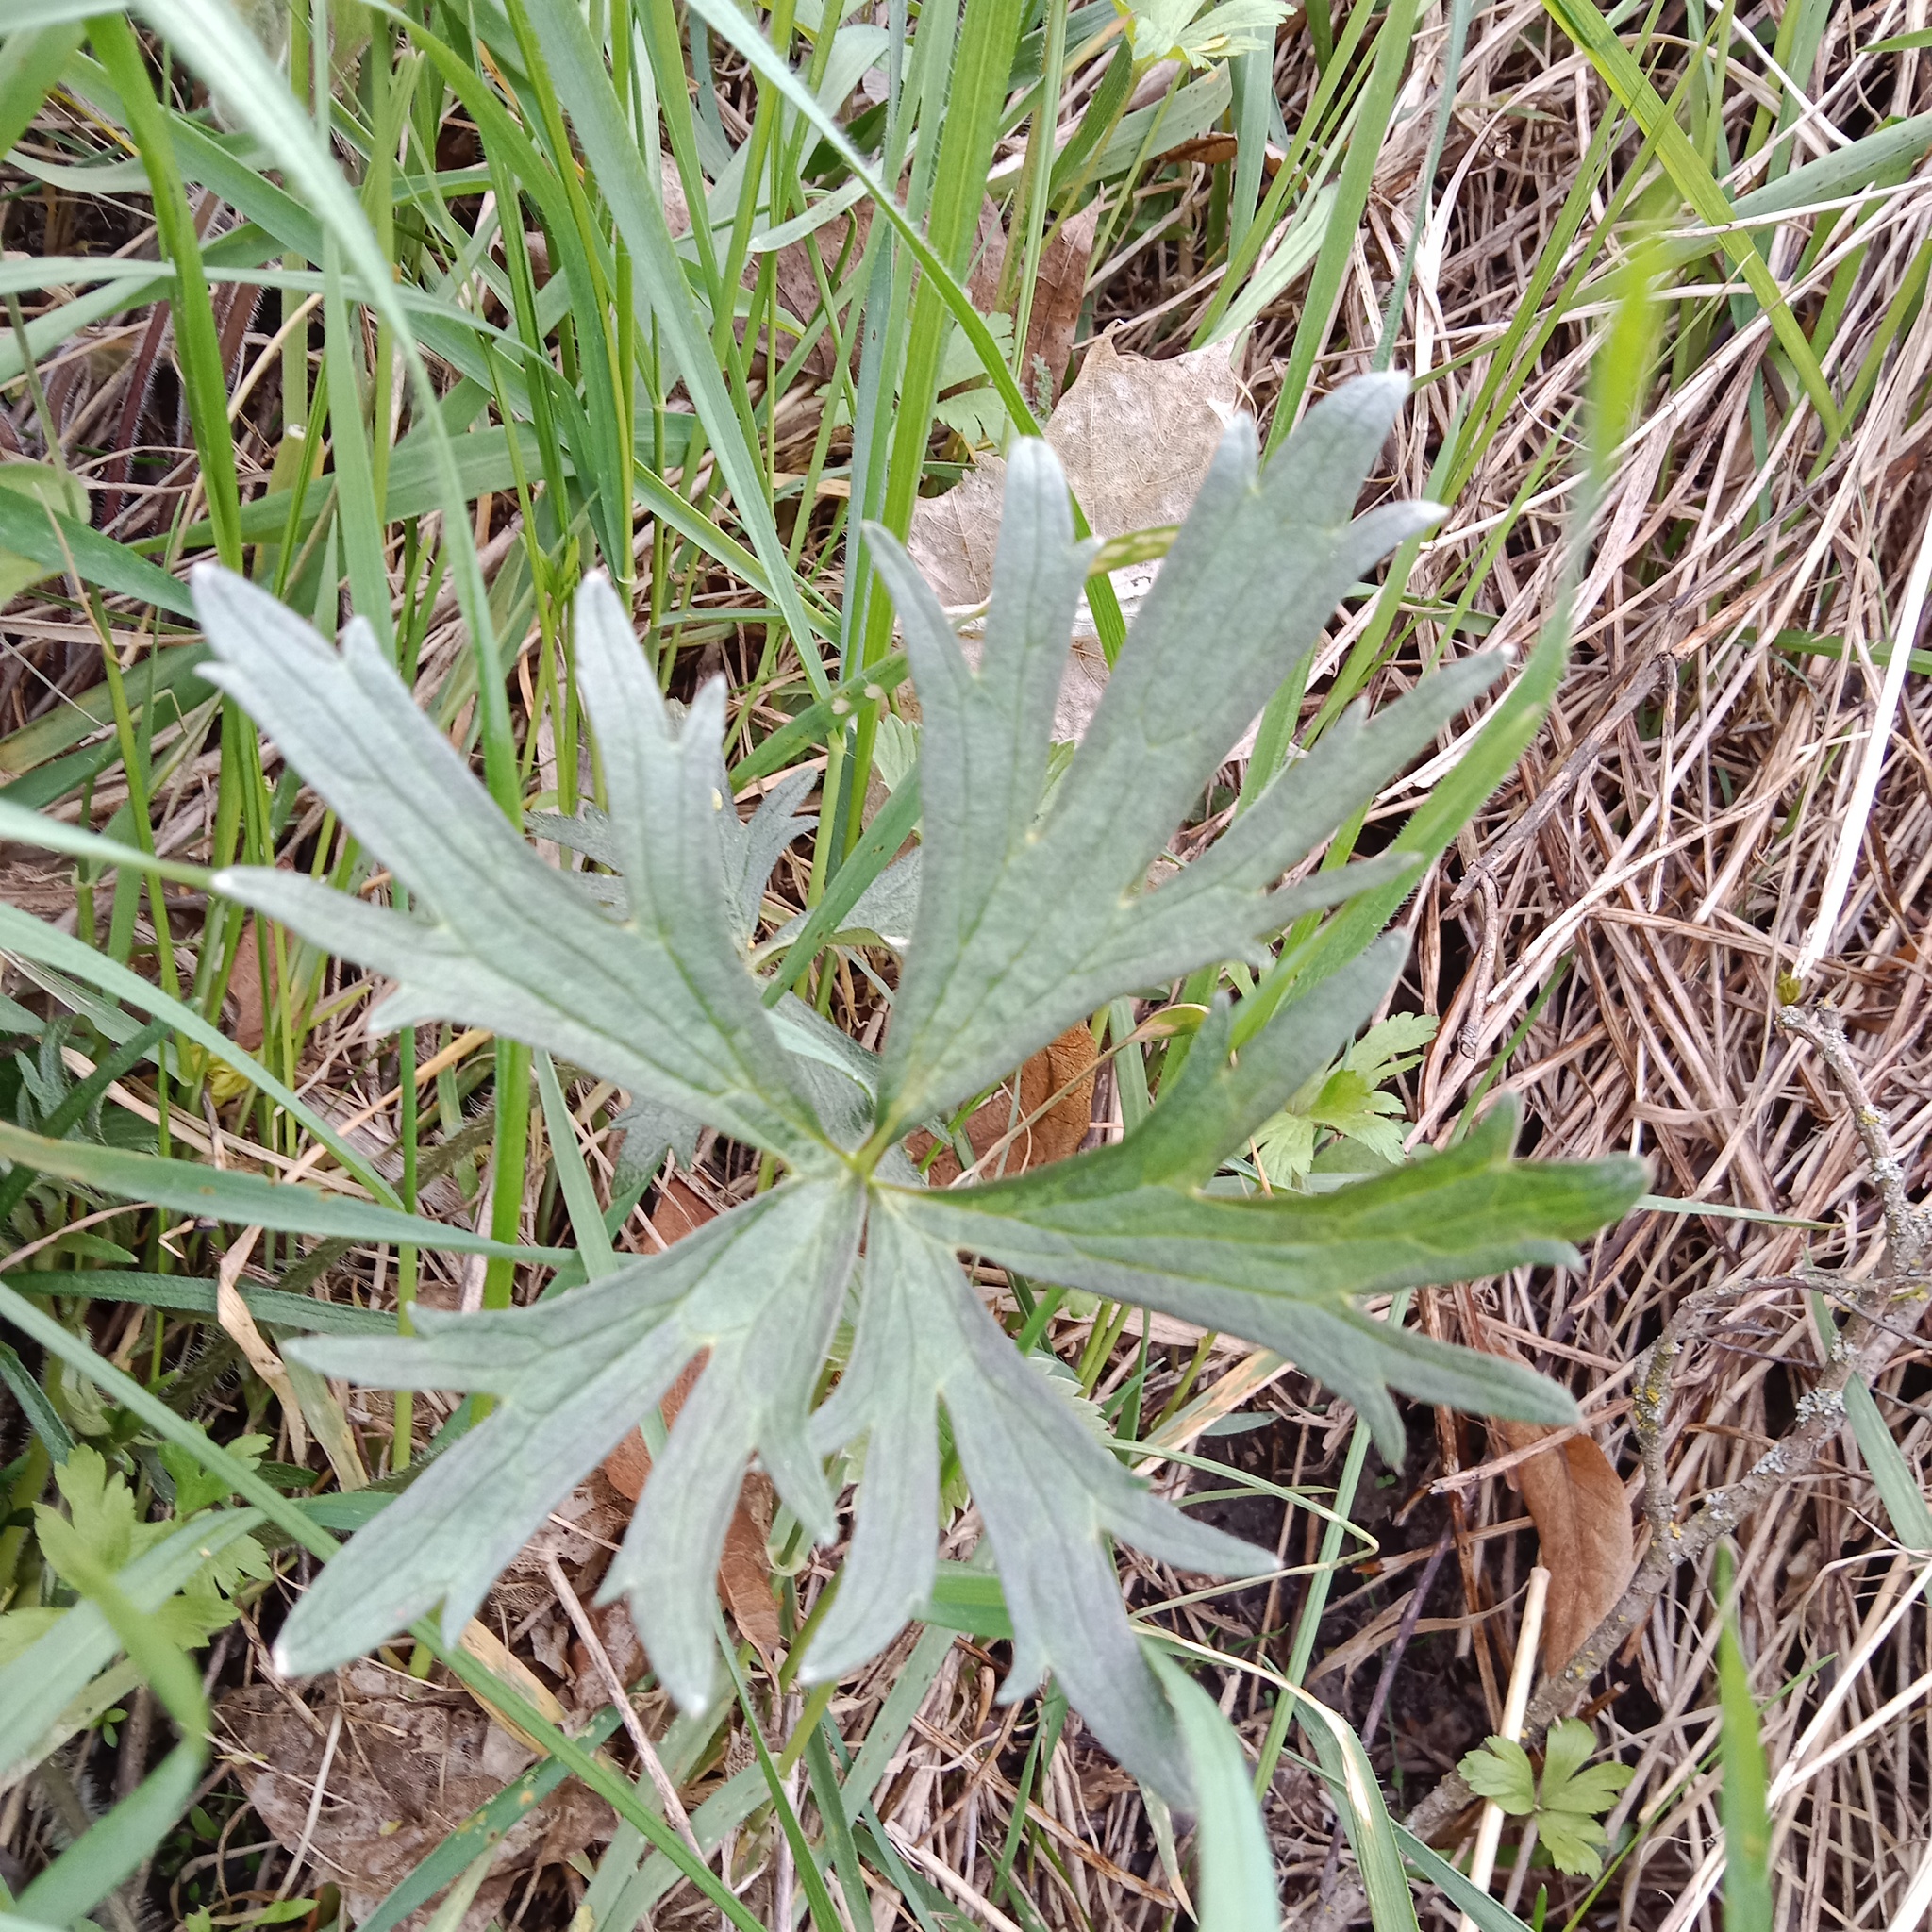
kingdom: Plantae
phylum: Tracheophyta
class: Magnoliopsida
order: Ranunculales
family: Ranunculaceae
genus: Ranunculus
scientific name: Ranunculus polyanthemos
